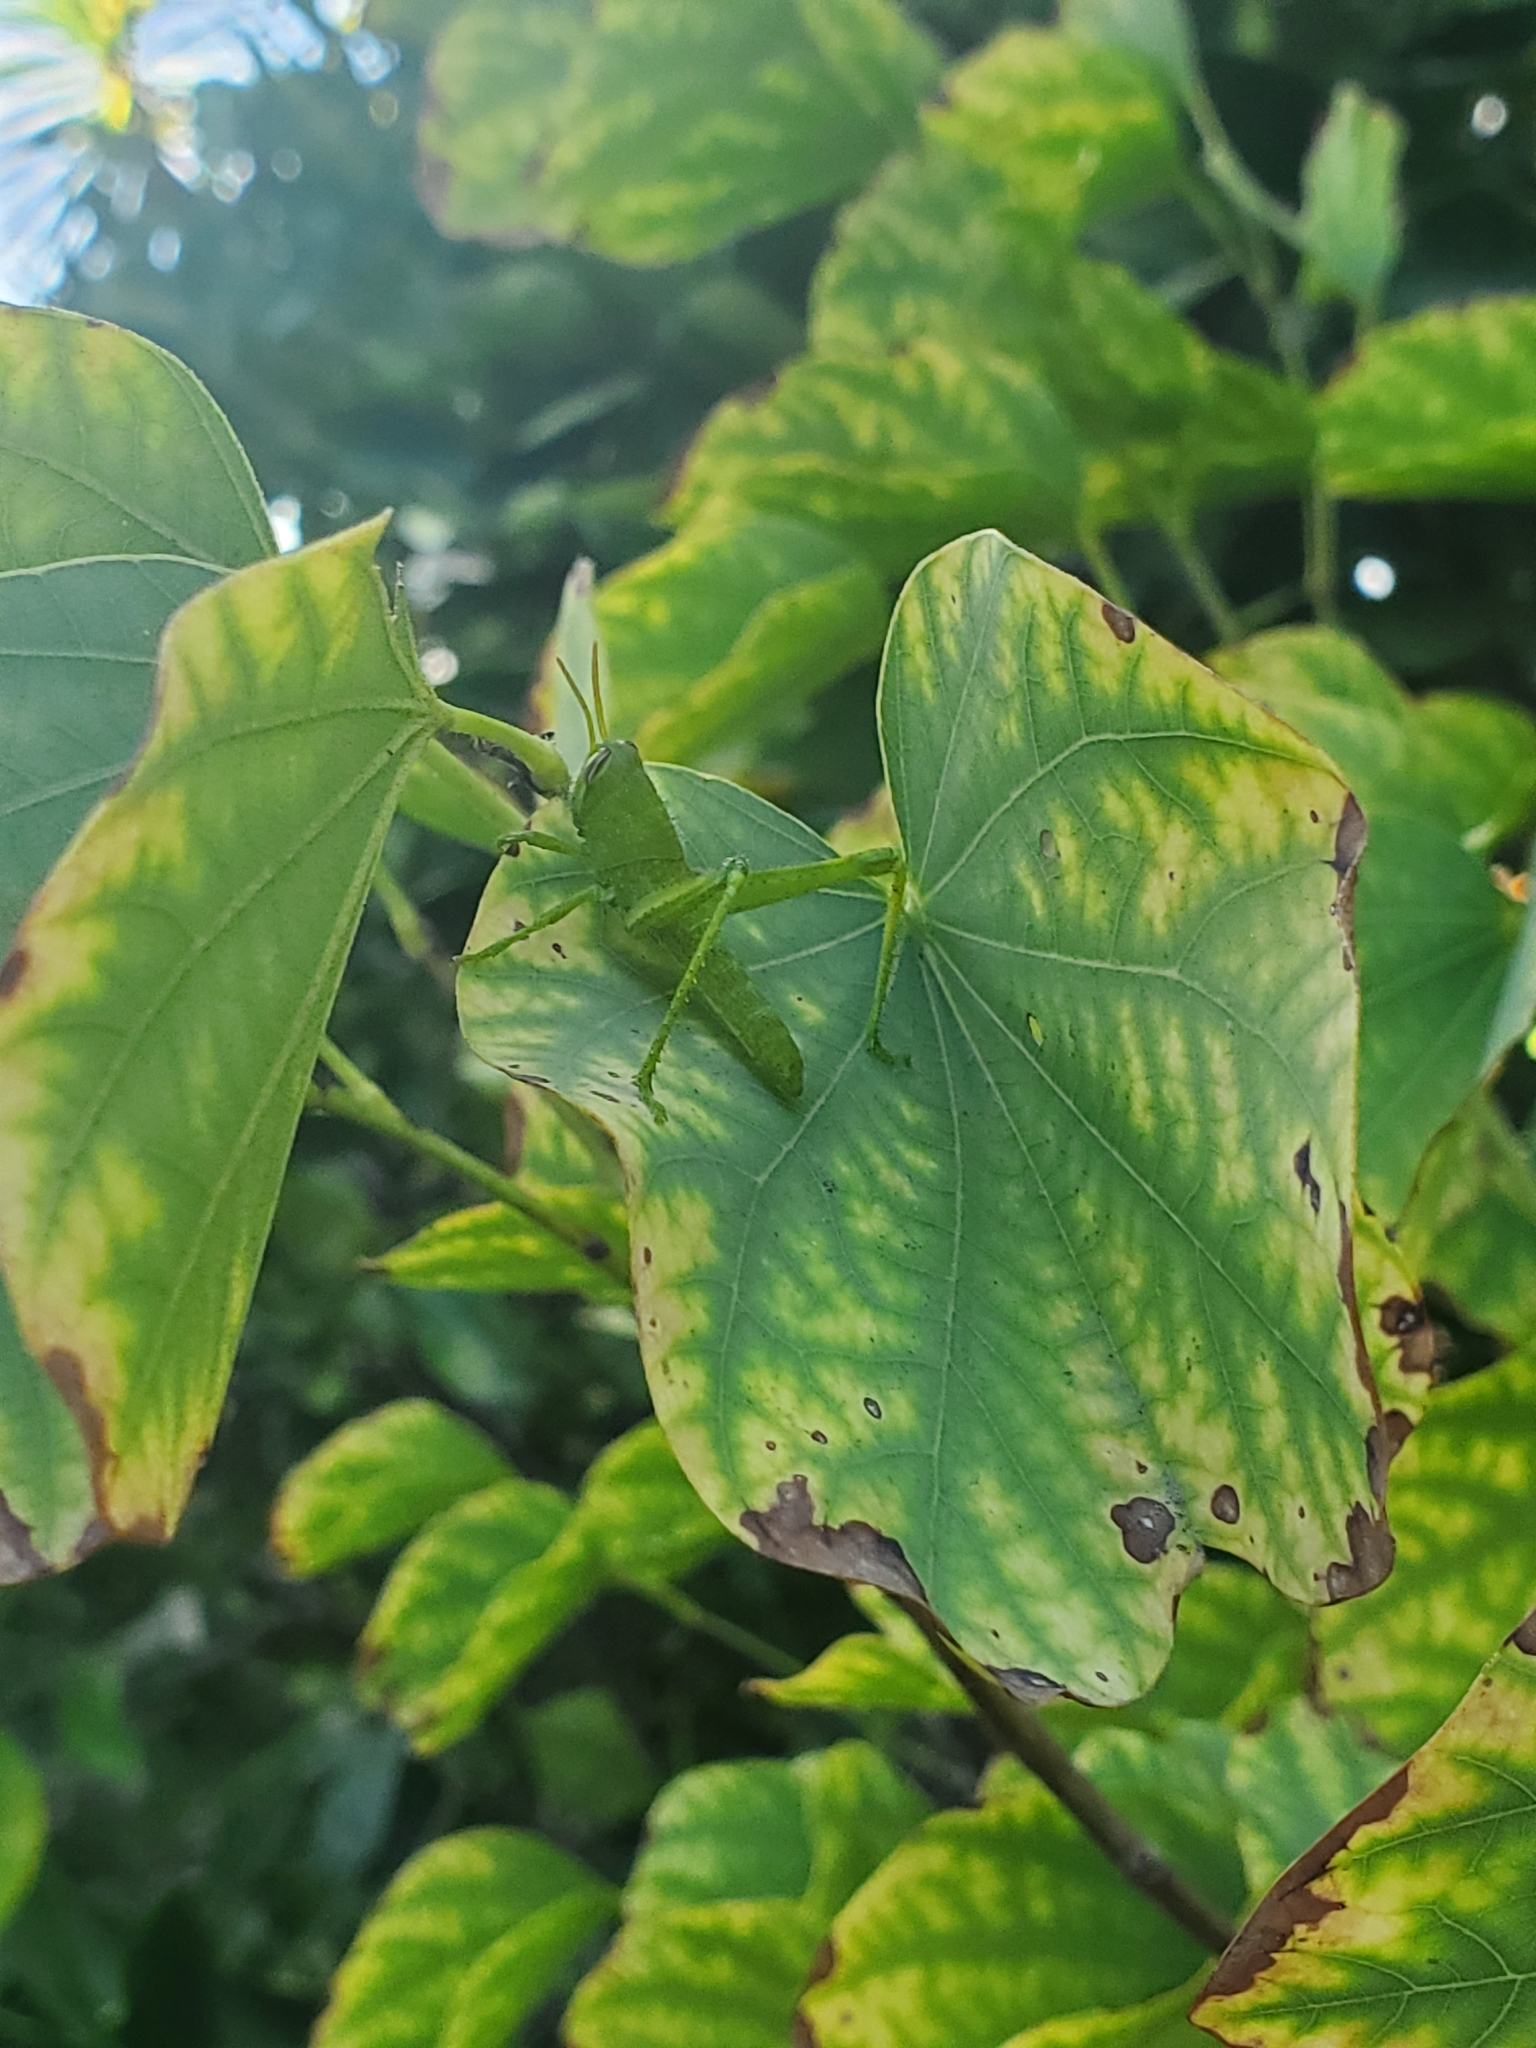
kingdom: Animalia
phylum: Arthropoda
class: Insecta
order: Orthoptera
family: Acrididae
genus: Schistocerca
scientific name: Schistocerca nitens
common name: Vagrant grasshopper
